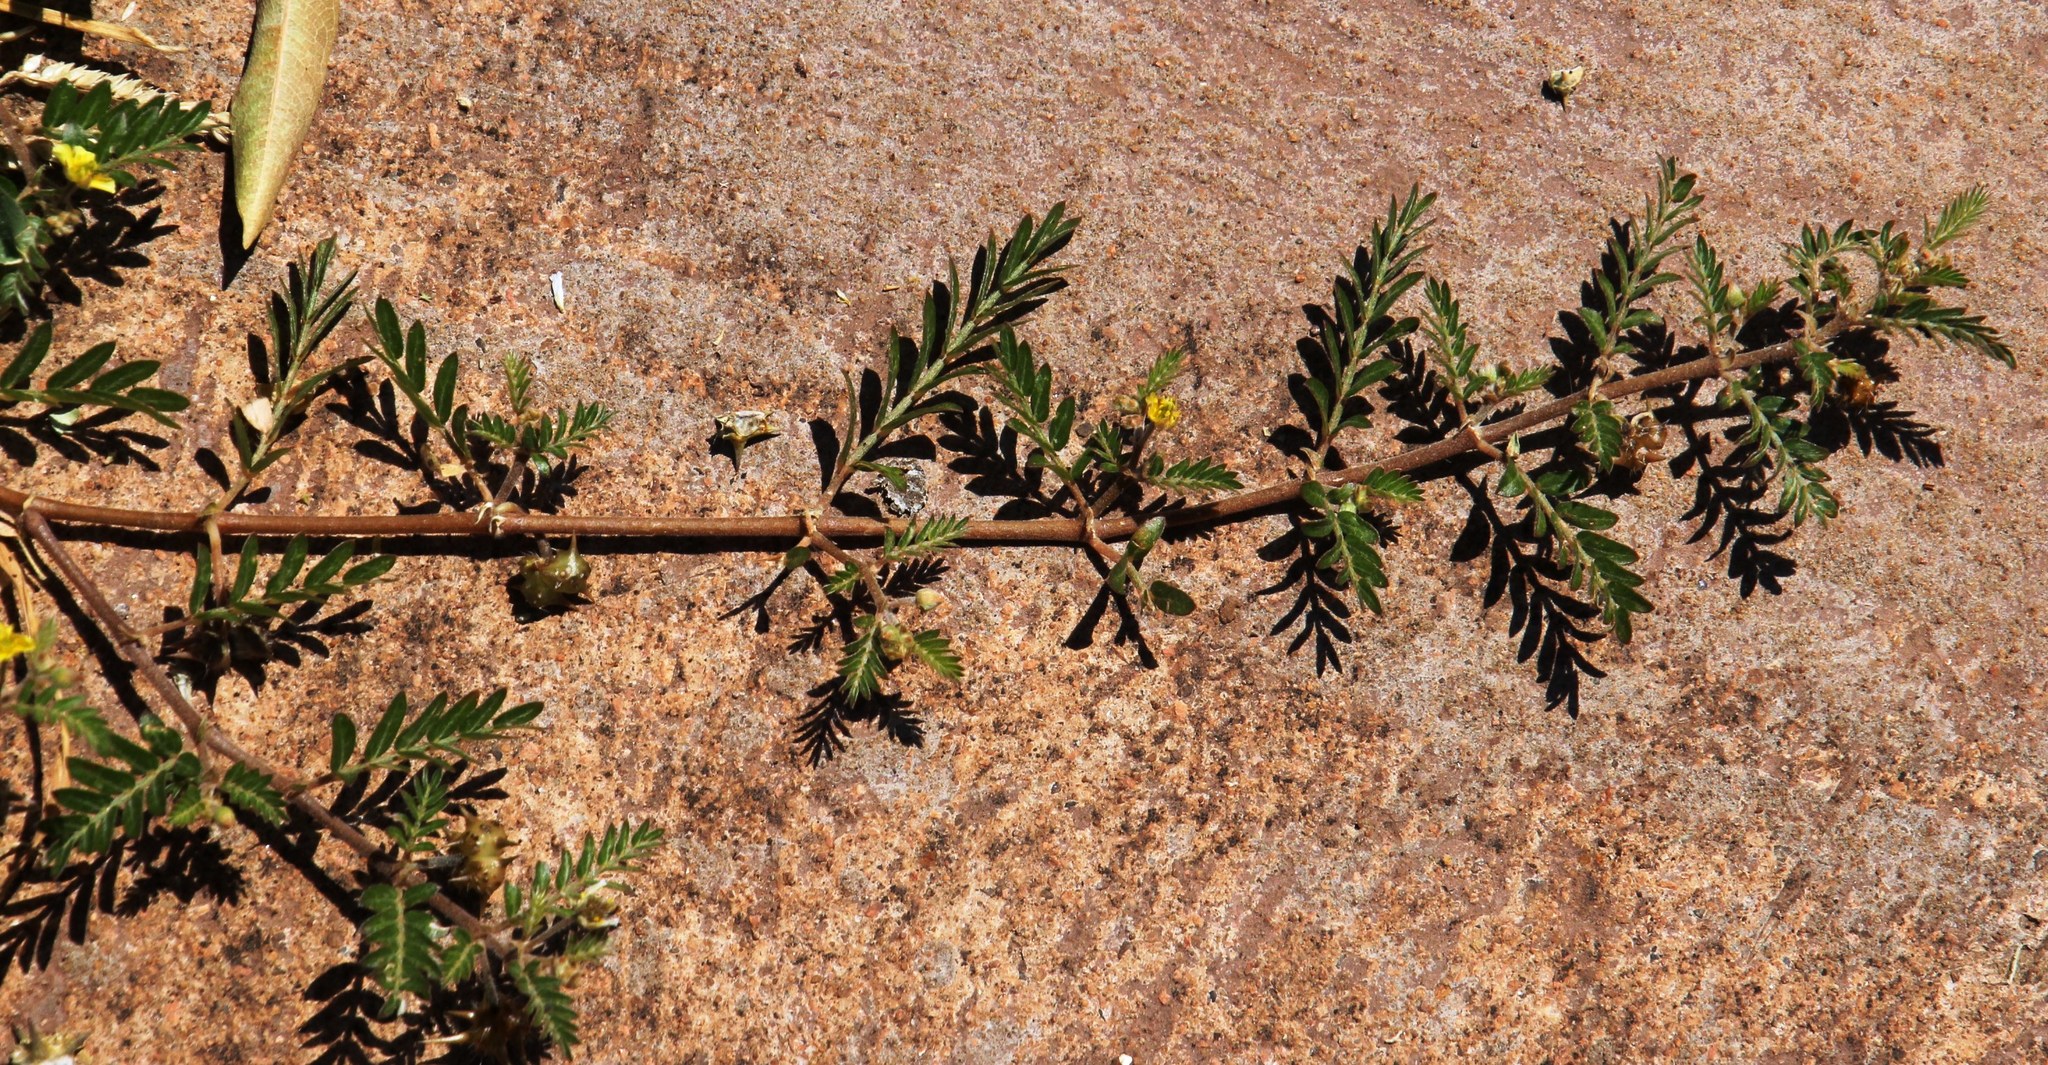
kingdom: Plantae
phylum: Tracheophyta
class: Magnoliopsida
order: Zygophyllales
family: Zygophyllaceae
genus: Tribulus
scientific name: Tribulus terrestris
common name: Puncturevine
